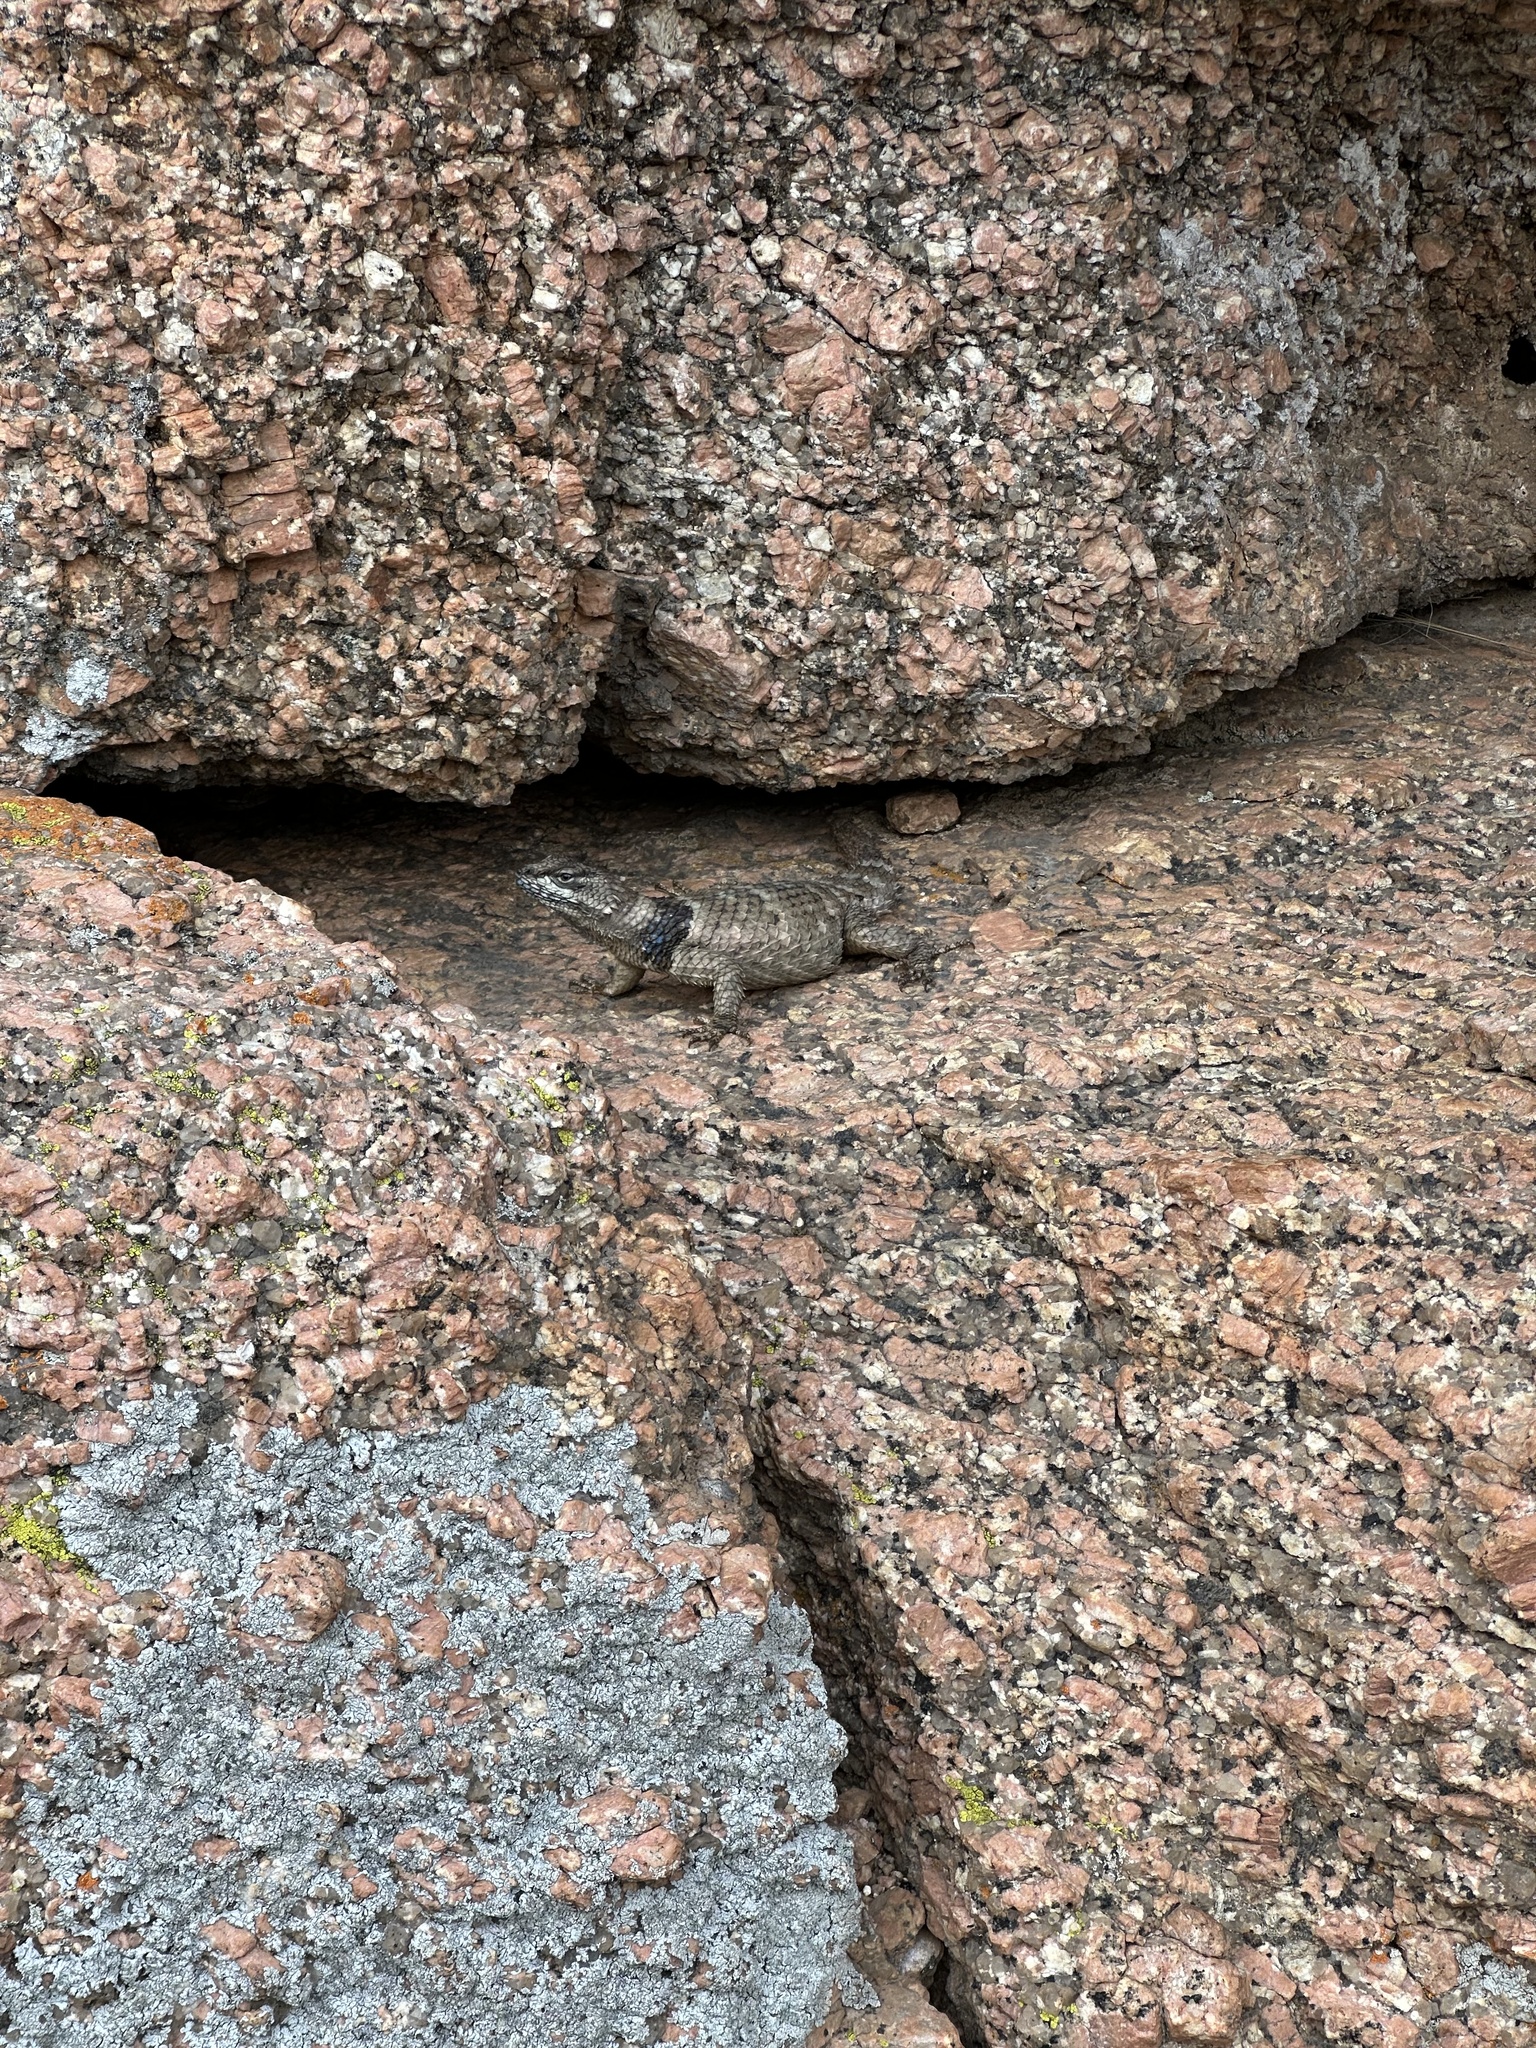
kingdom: Animalia
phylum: Chordata
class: Squamata
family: Phrynosomatidae
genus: Sceloporus
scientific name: Sceloporus poinsettii
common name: Crevice spiny lizard
